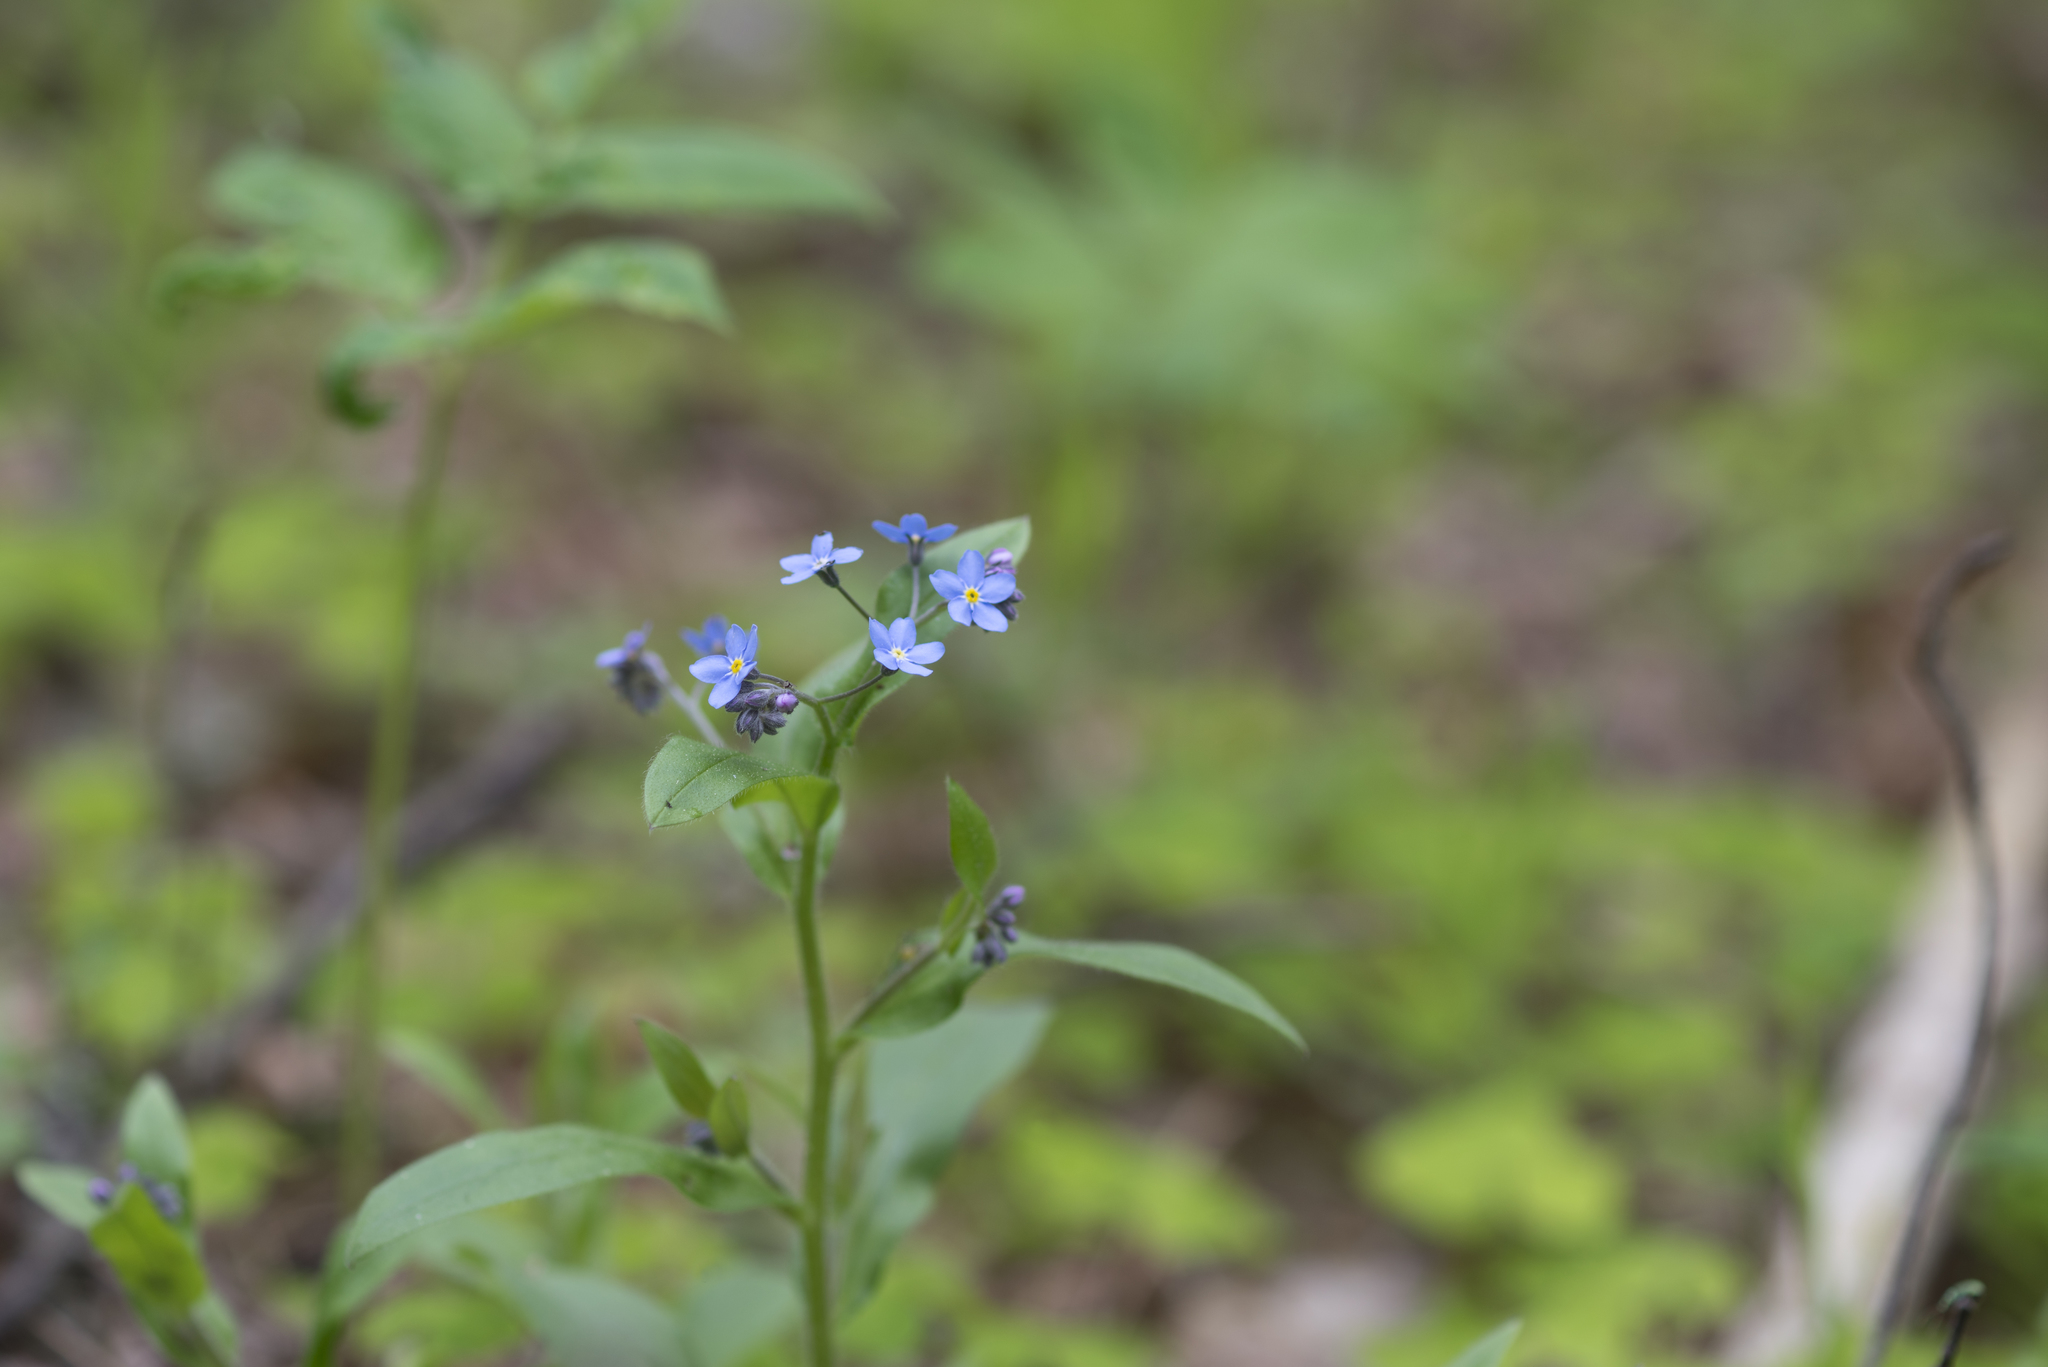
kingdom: Plantae
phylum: Tracheophyta
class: Magnoliopsida
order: Boraginales
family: Boraginaceae
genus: Myosotis
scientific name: Myosotis sylvatica
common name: Wood forget-me-not
